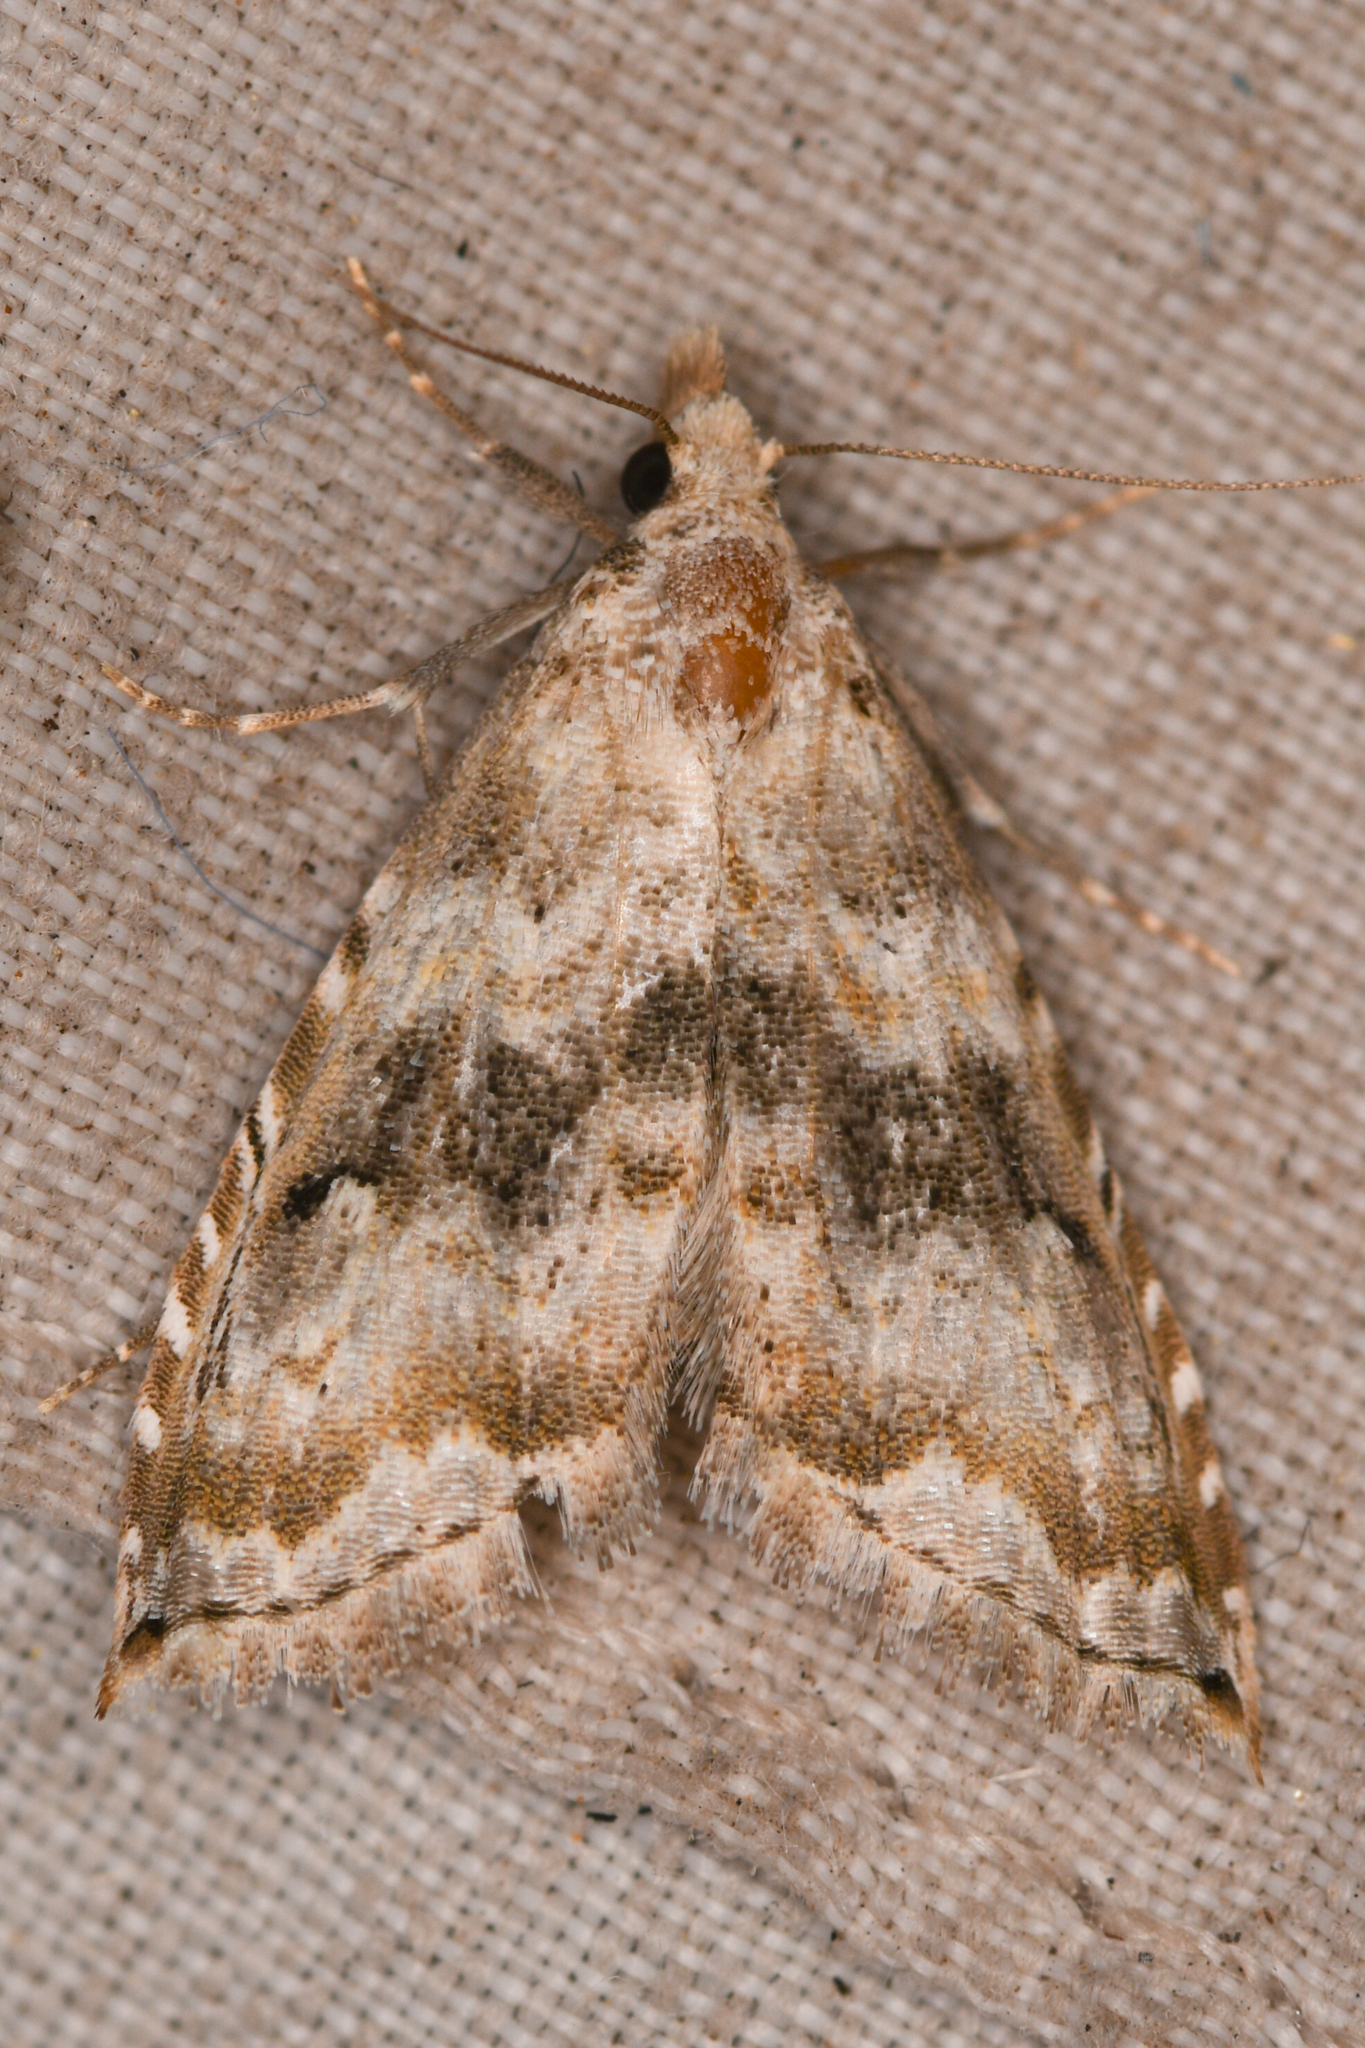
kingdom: Animalia
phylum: Arthropoda
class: Insecta
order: Lepidoptera
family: Noctuidae
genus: Phobolosia
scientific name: Phobolosia anfracta
